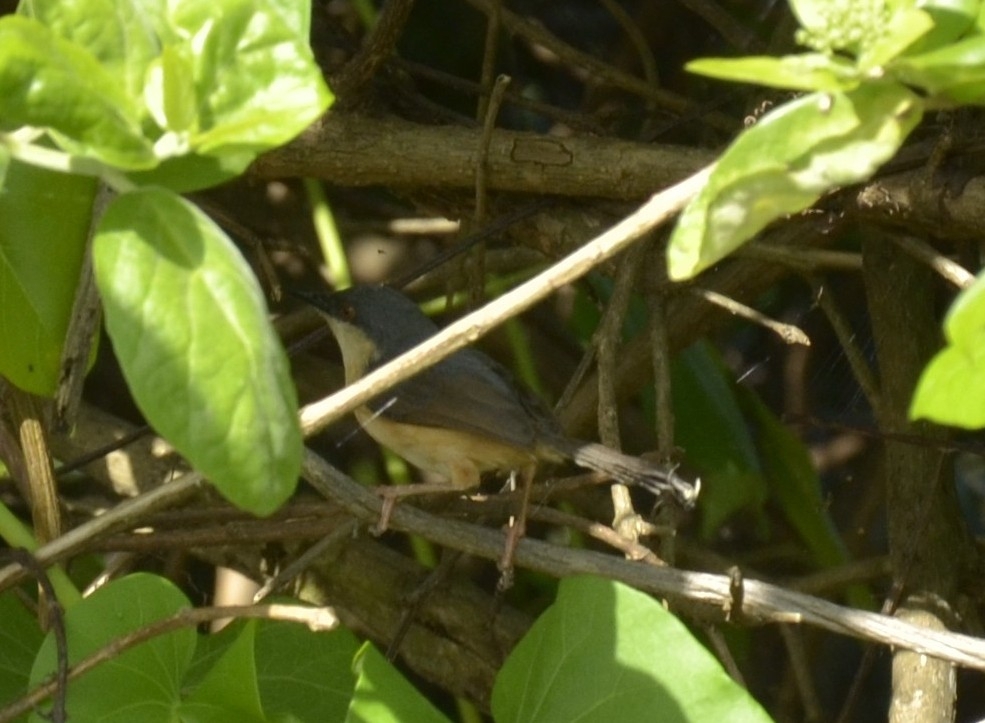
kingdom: Animalia
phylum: Chordata
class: Aves
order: Passeriformes
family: Cisticolidae
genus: Prinia
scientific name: Prinia socialis
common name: Ashy prinia
